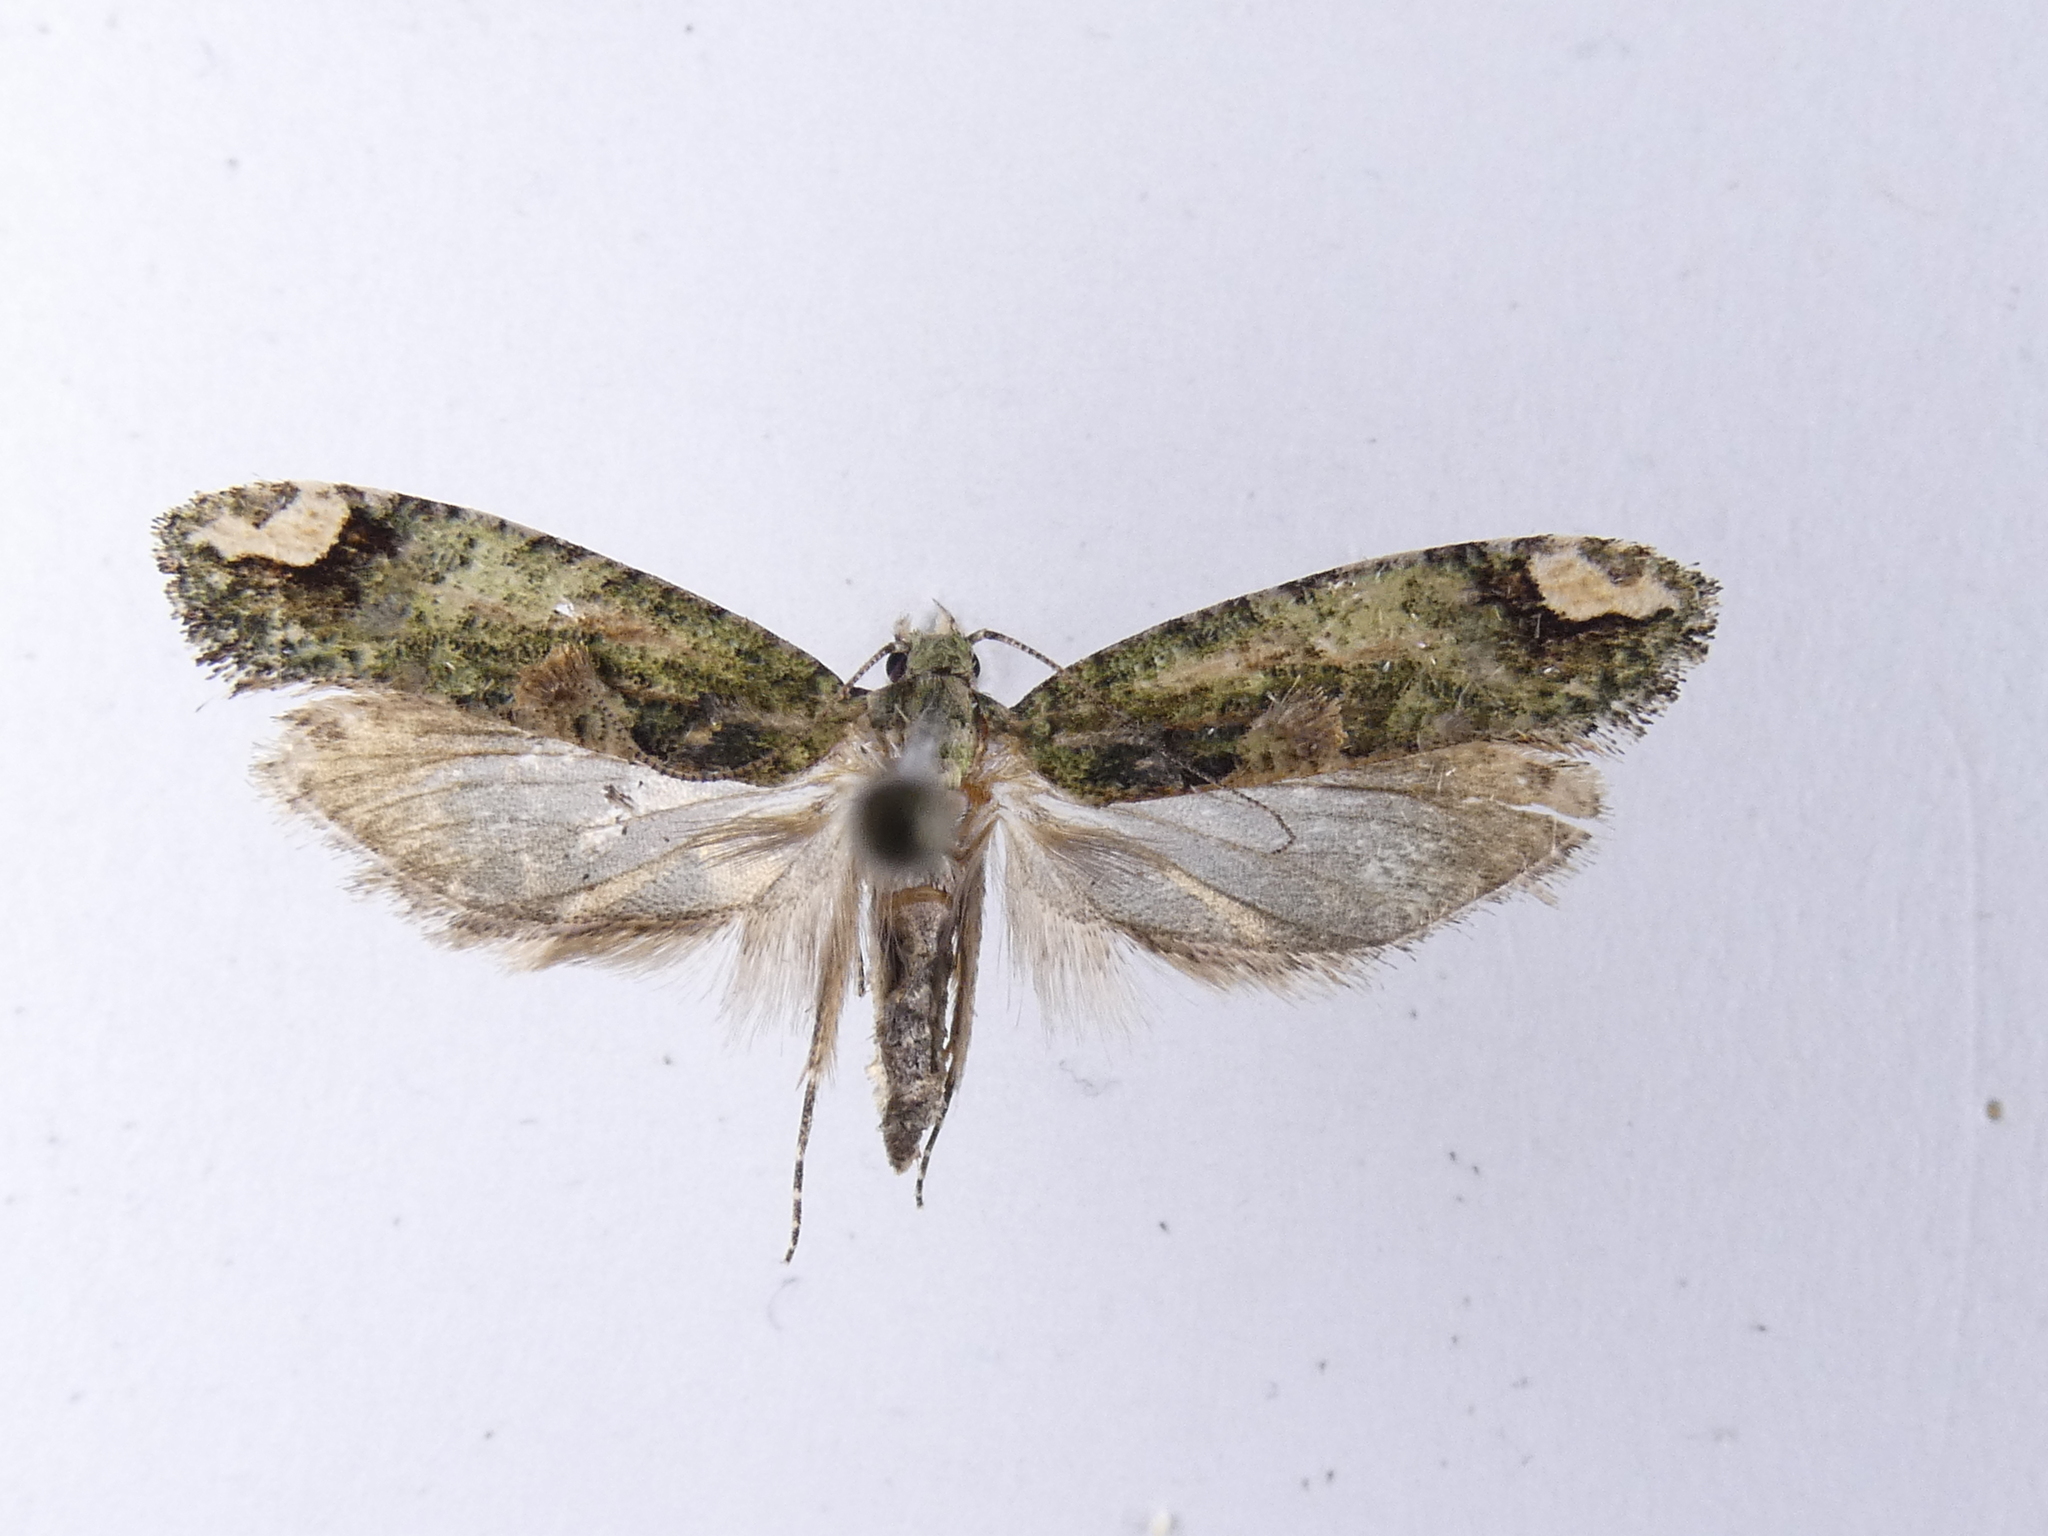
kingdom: Animalia
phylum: Arthropoda
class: Insecta
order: Lepidoptera
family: Tineidae
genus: Lysiphragma
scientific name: Lysiphragma mixochlora
